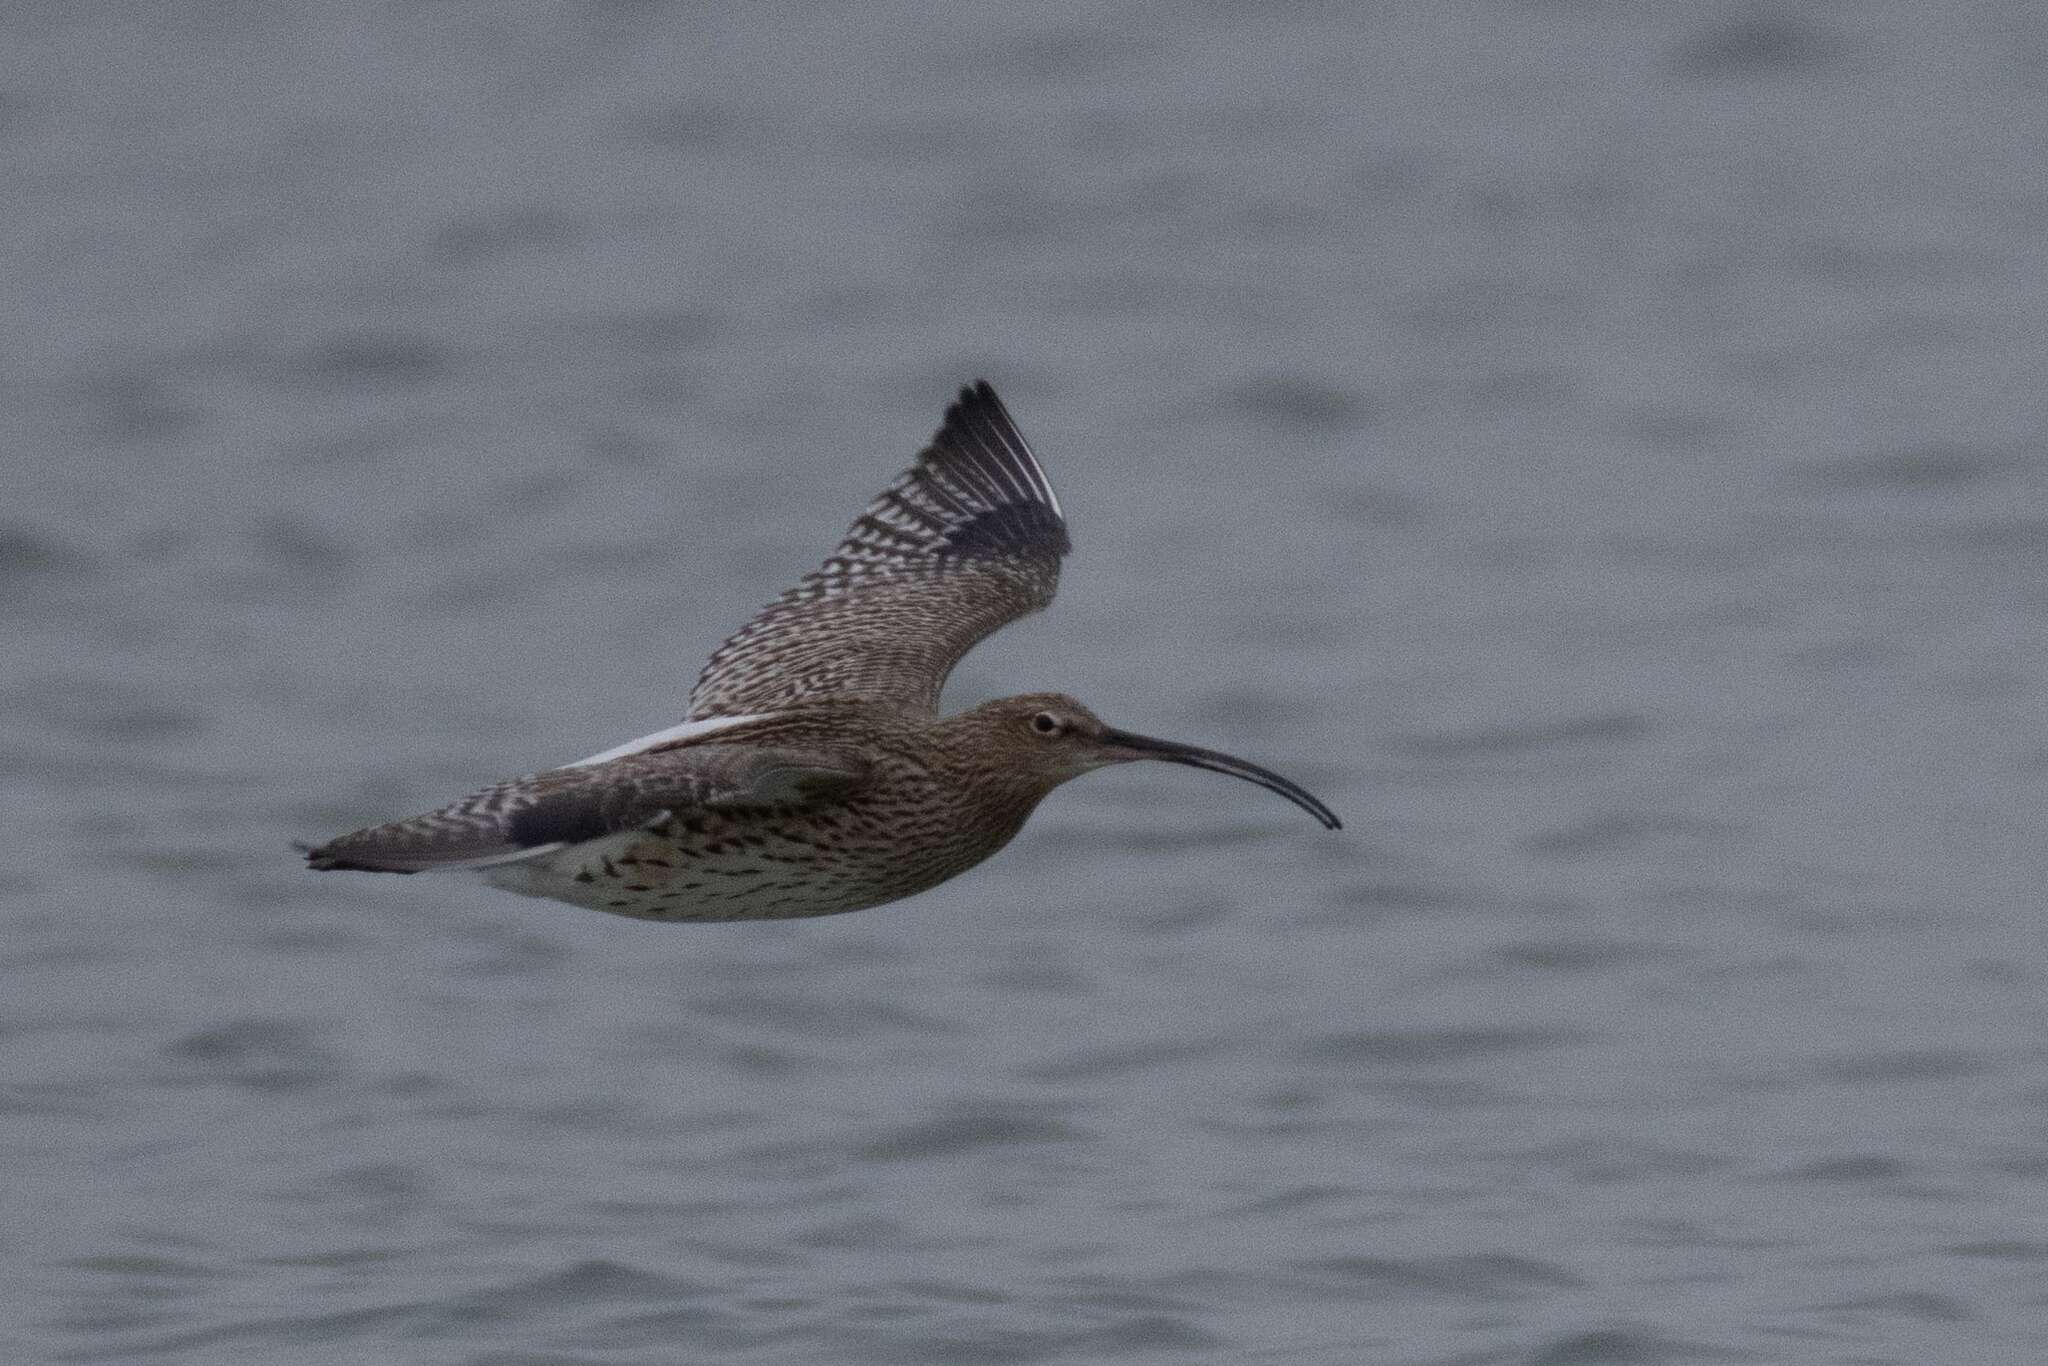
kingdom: Animalia
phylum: Chordata
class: Aves
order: Charadriiformes
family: Scolopacidae
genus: Numenius
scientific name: Numenius arquata
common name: Eurasian curlew
